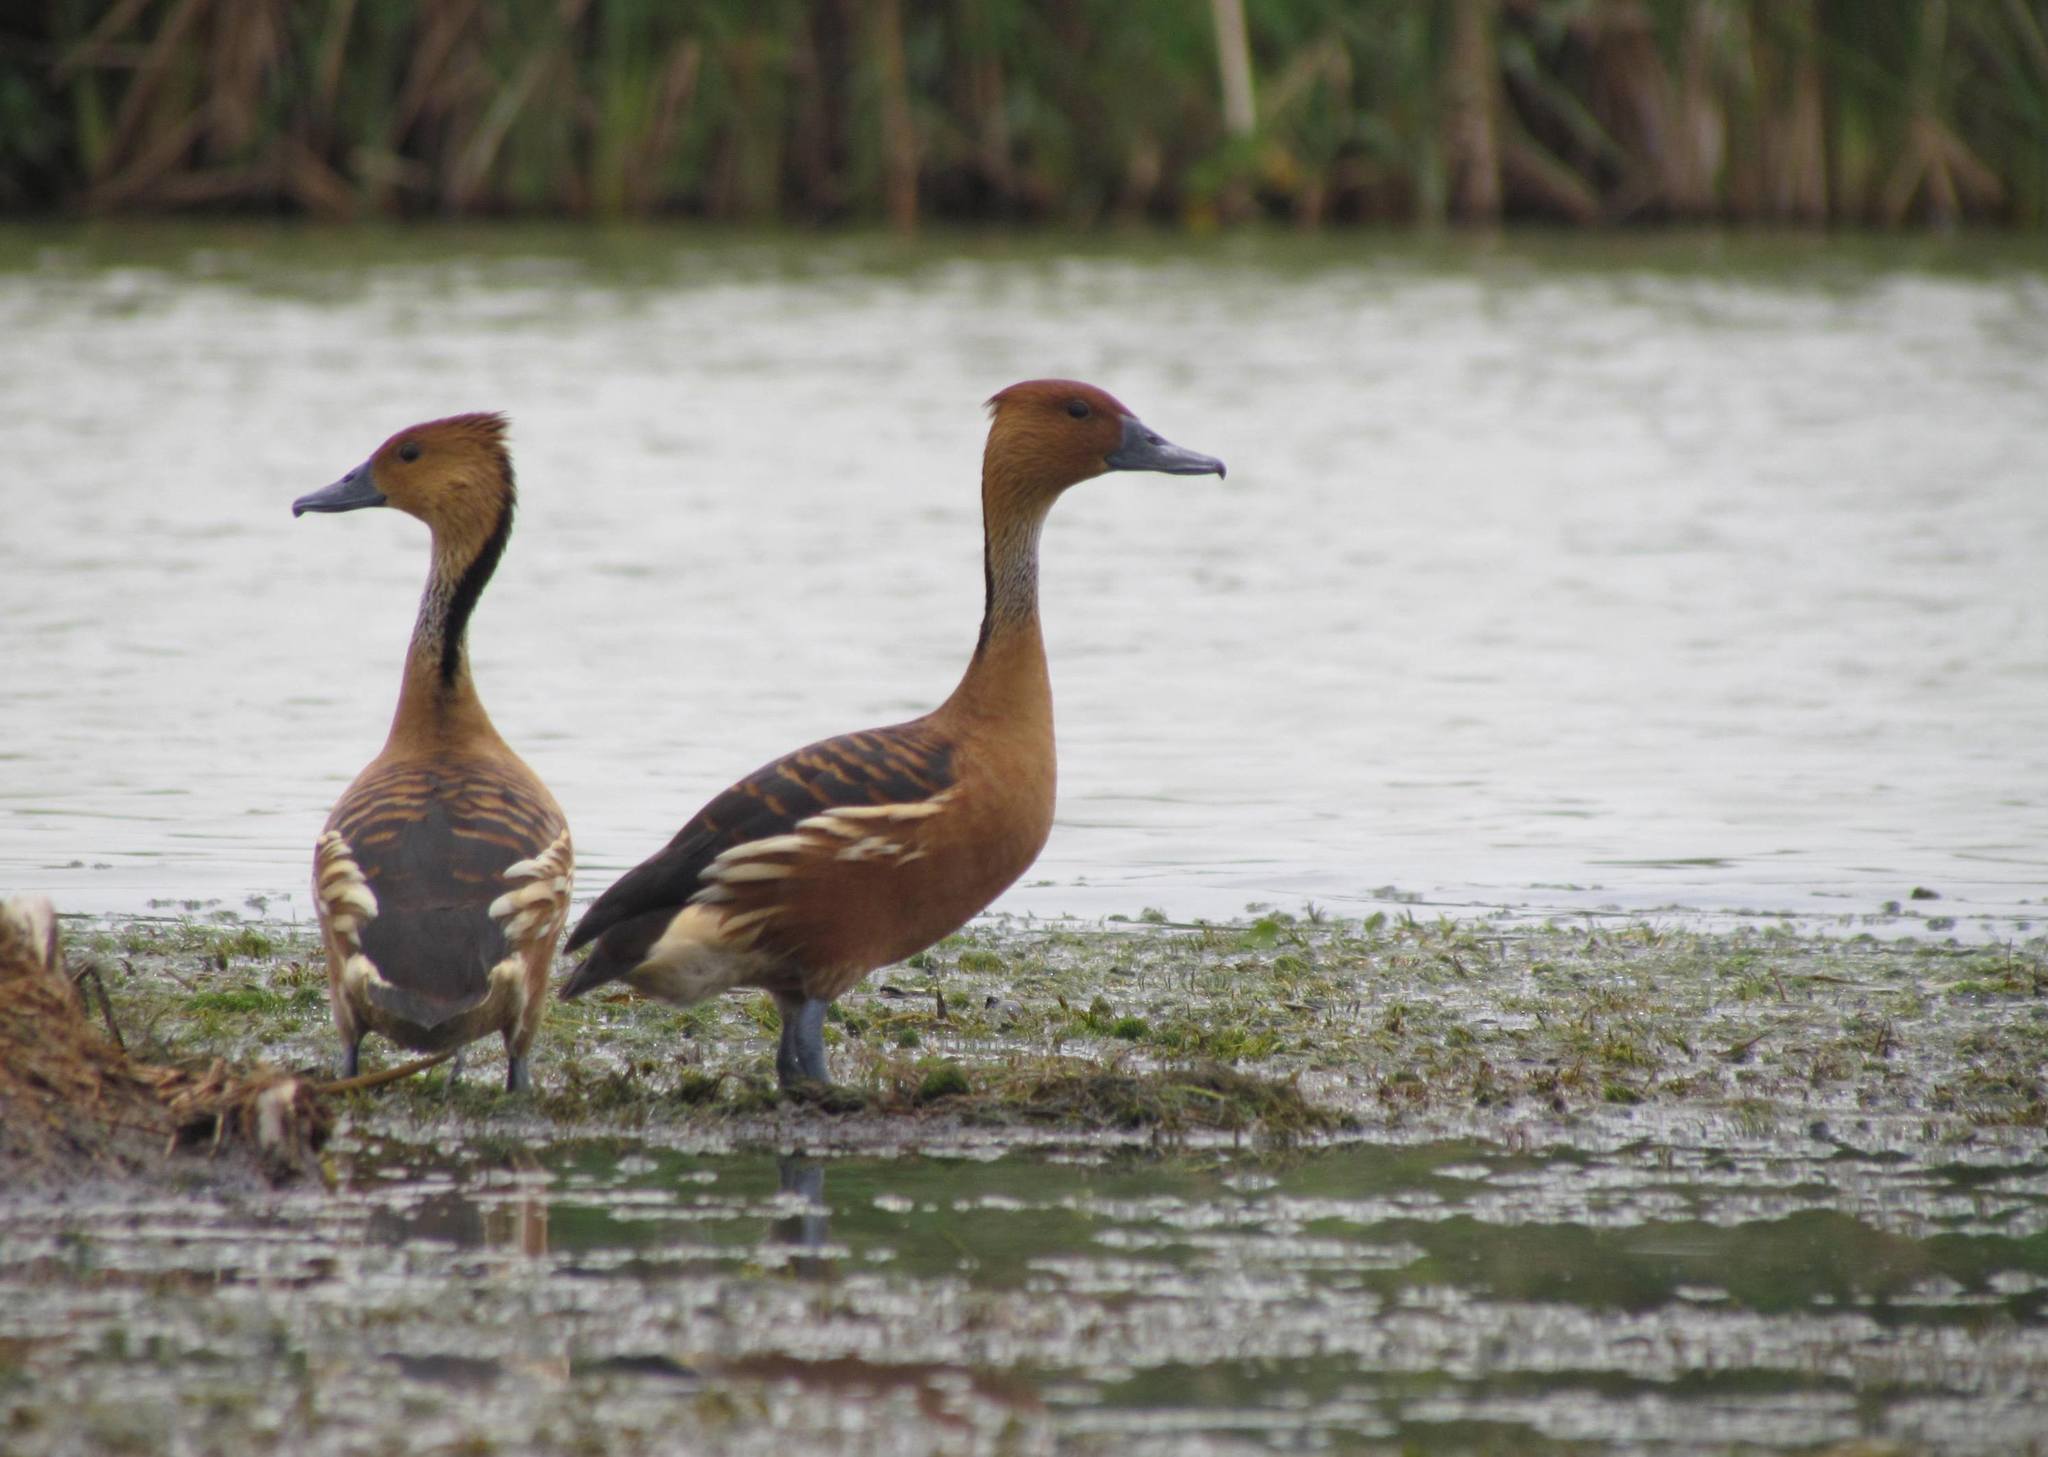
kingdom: Animalia
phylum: Chordata
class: Aves
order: Anseriformes
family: Anatidae
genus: Dendrocygna
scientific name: Dendrocygna bicolor
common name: Fulvous whistling duck
